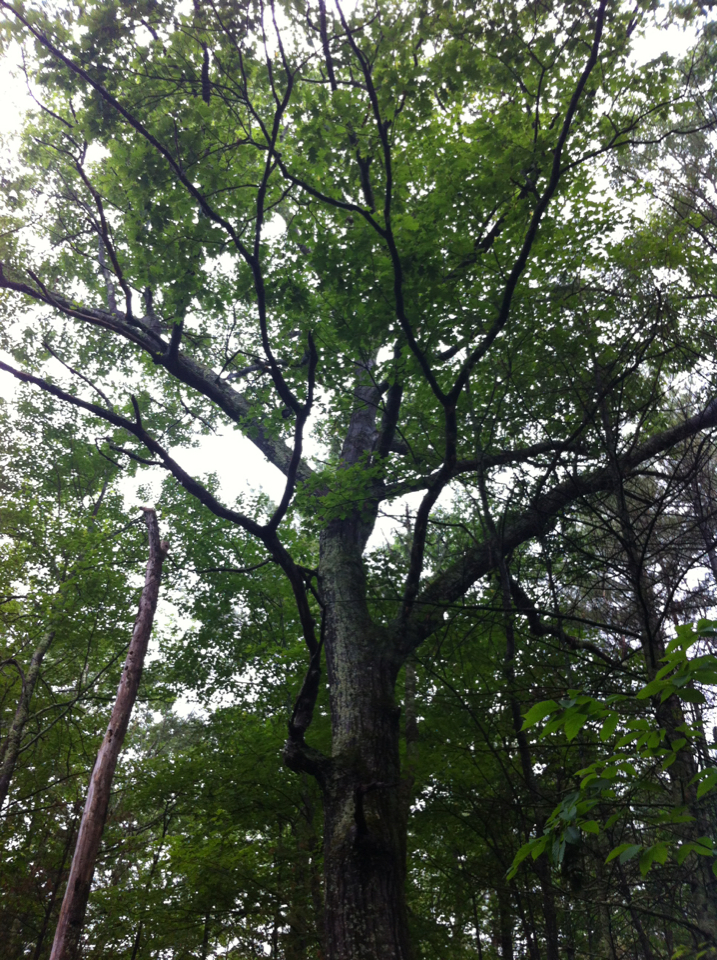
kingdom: Plantae
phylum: Tracheophyta
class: Magnoliopsida
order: Fagales
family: Fagaceae
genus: Quercus
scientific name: Quercus rubra
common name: Red oak
